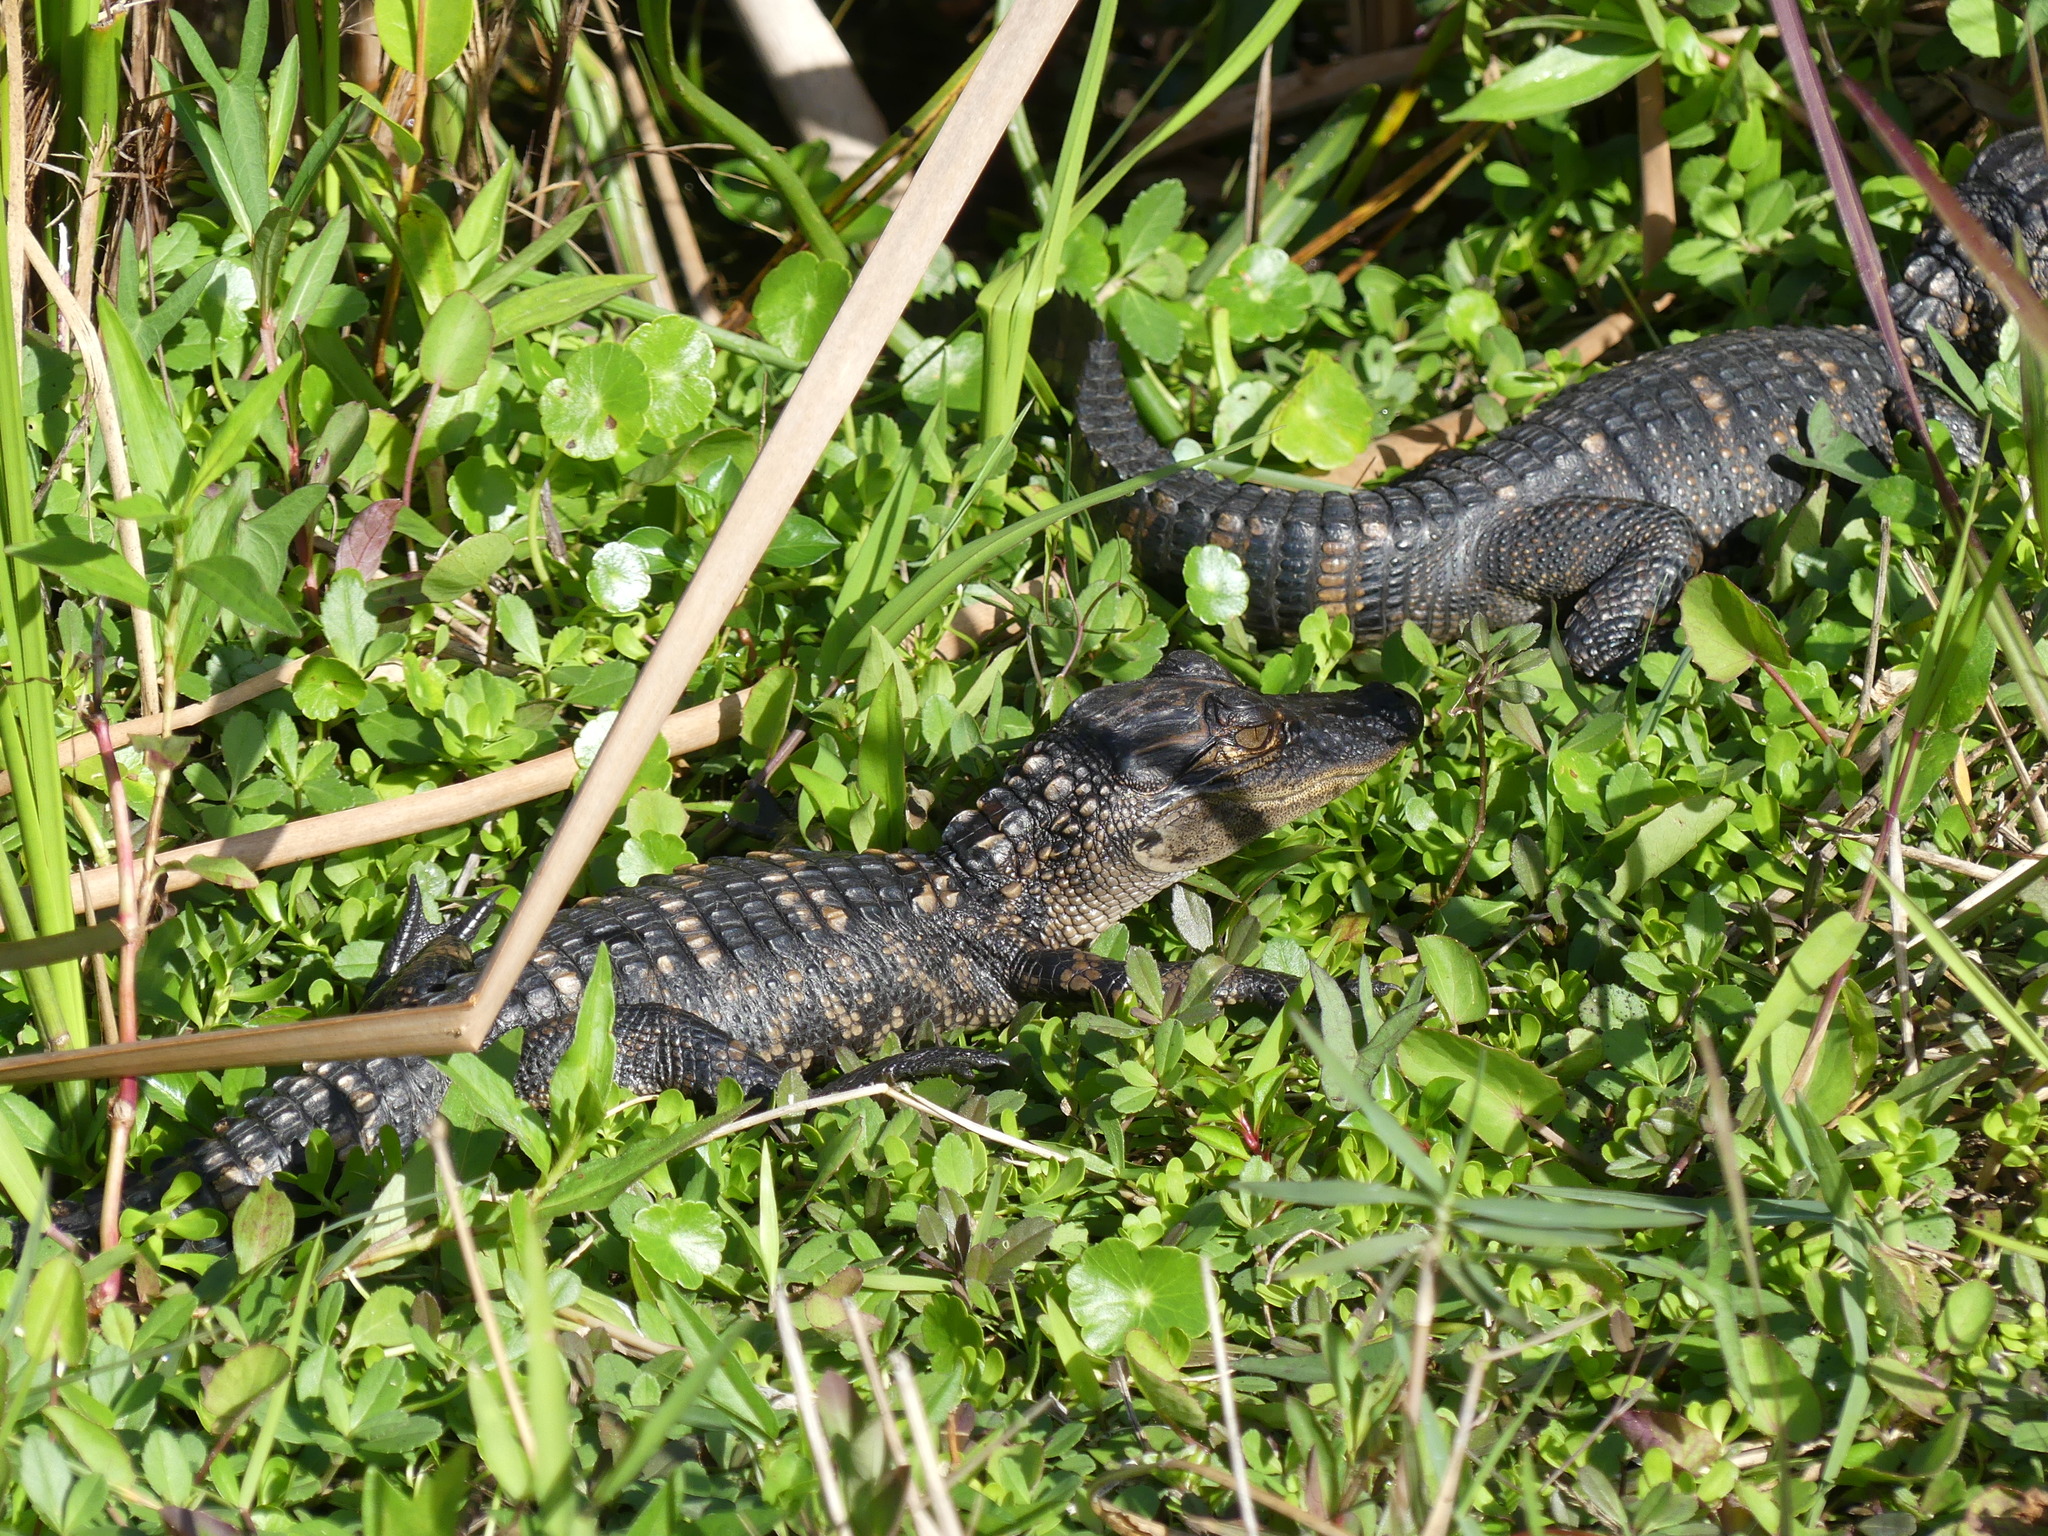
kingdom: Animalia
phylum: Chordata
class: Crocodylia
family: Alligatoridae
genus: Alligator
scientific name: Alligator mississippiensis
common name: American alligator
